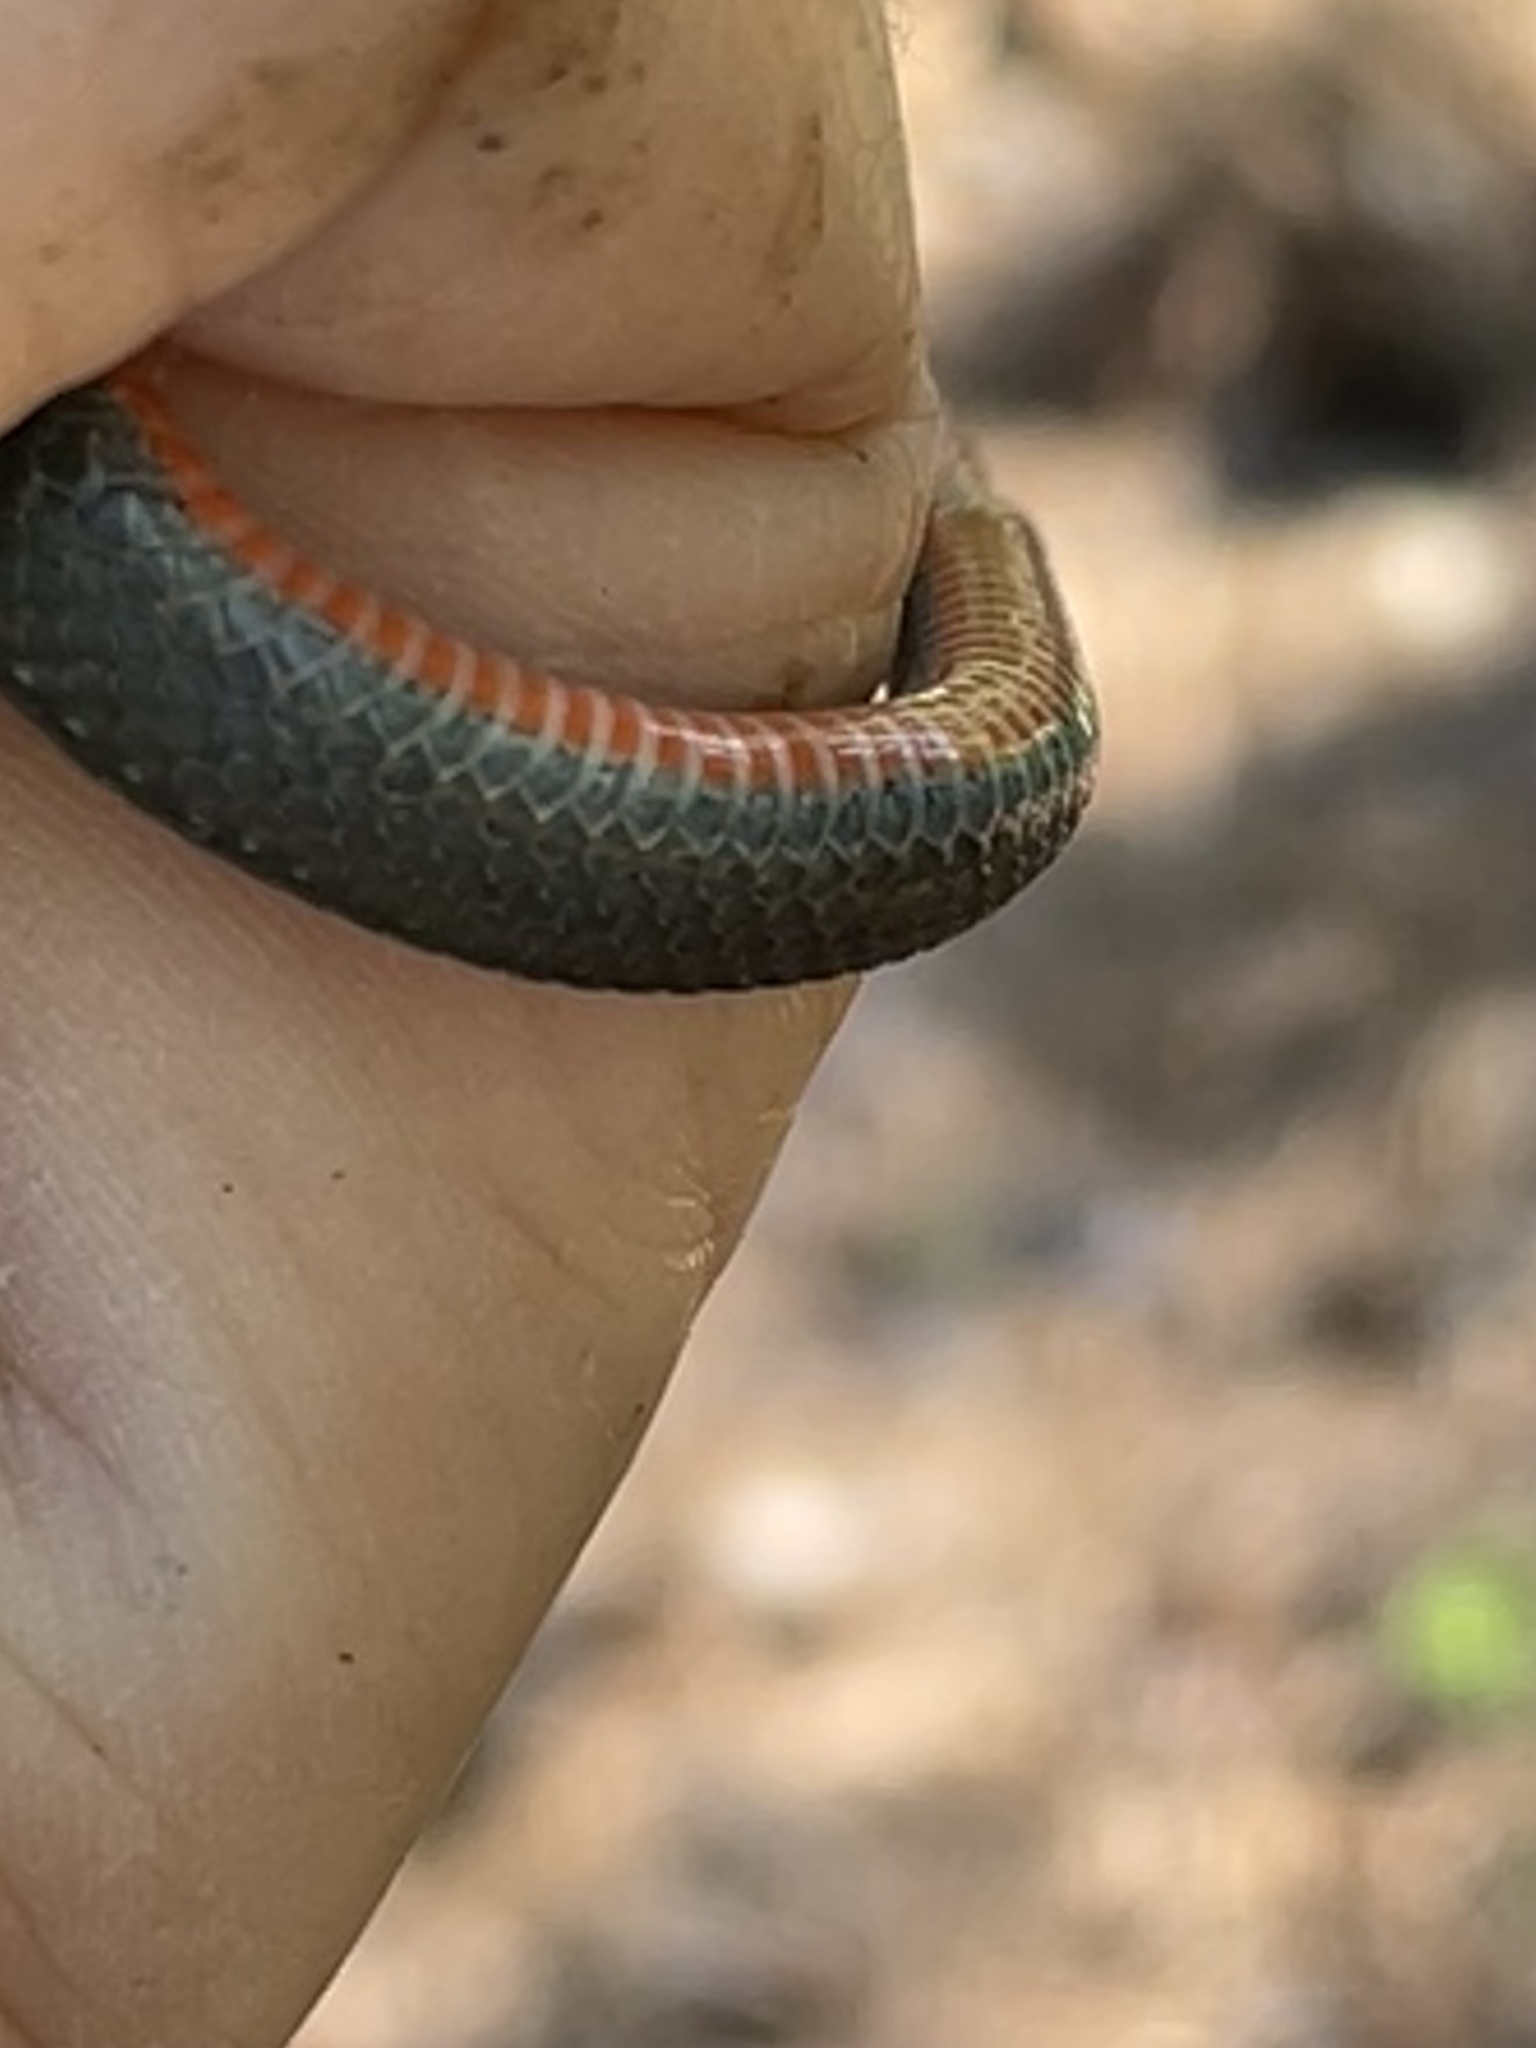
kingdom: Animalia
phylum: Chordata
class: Squamata
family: Colubridae
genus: Storeria
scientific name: Storeria occipitomaculata
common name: Redbelly snake
